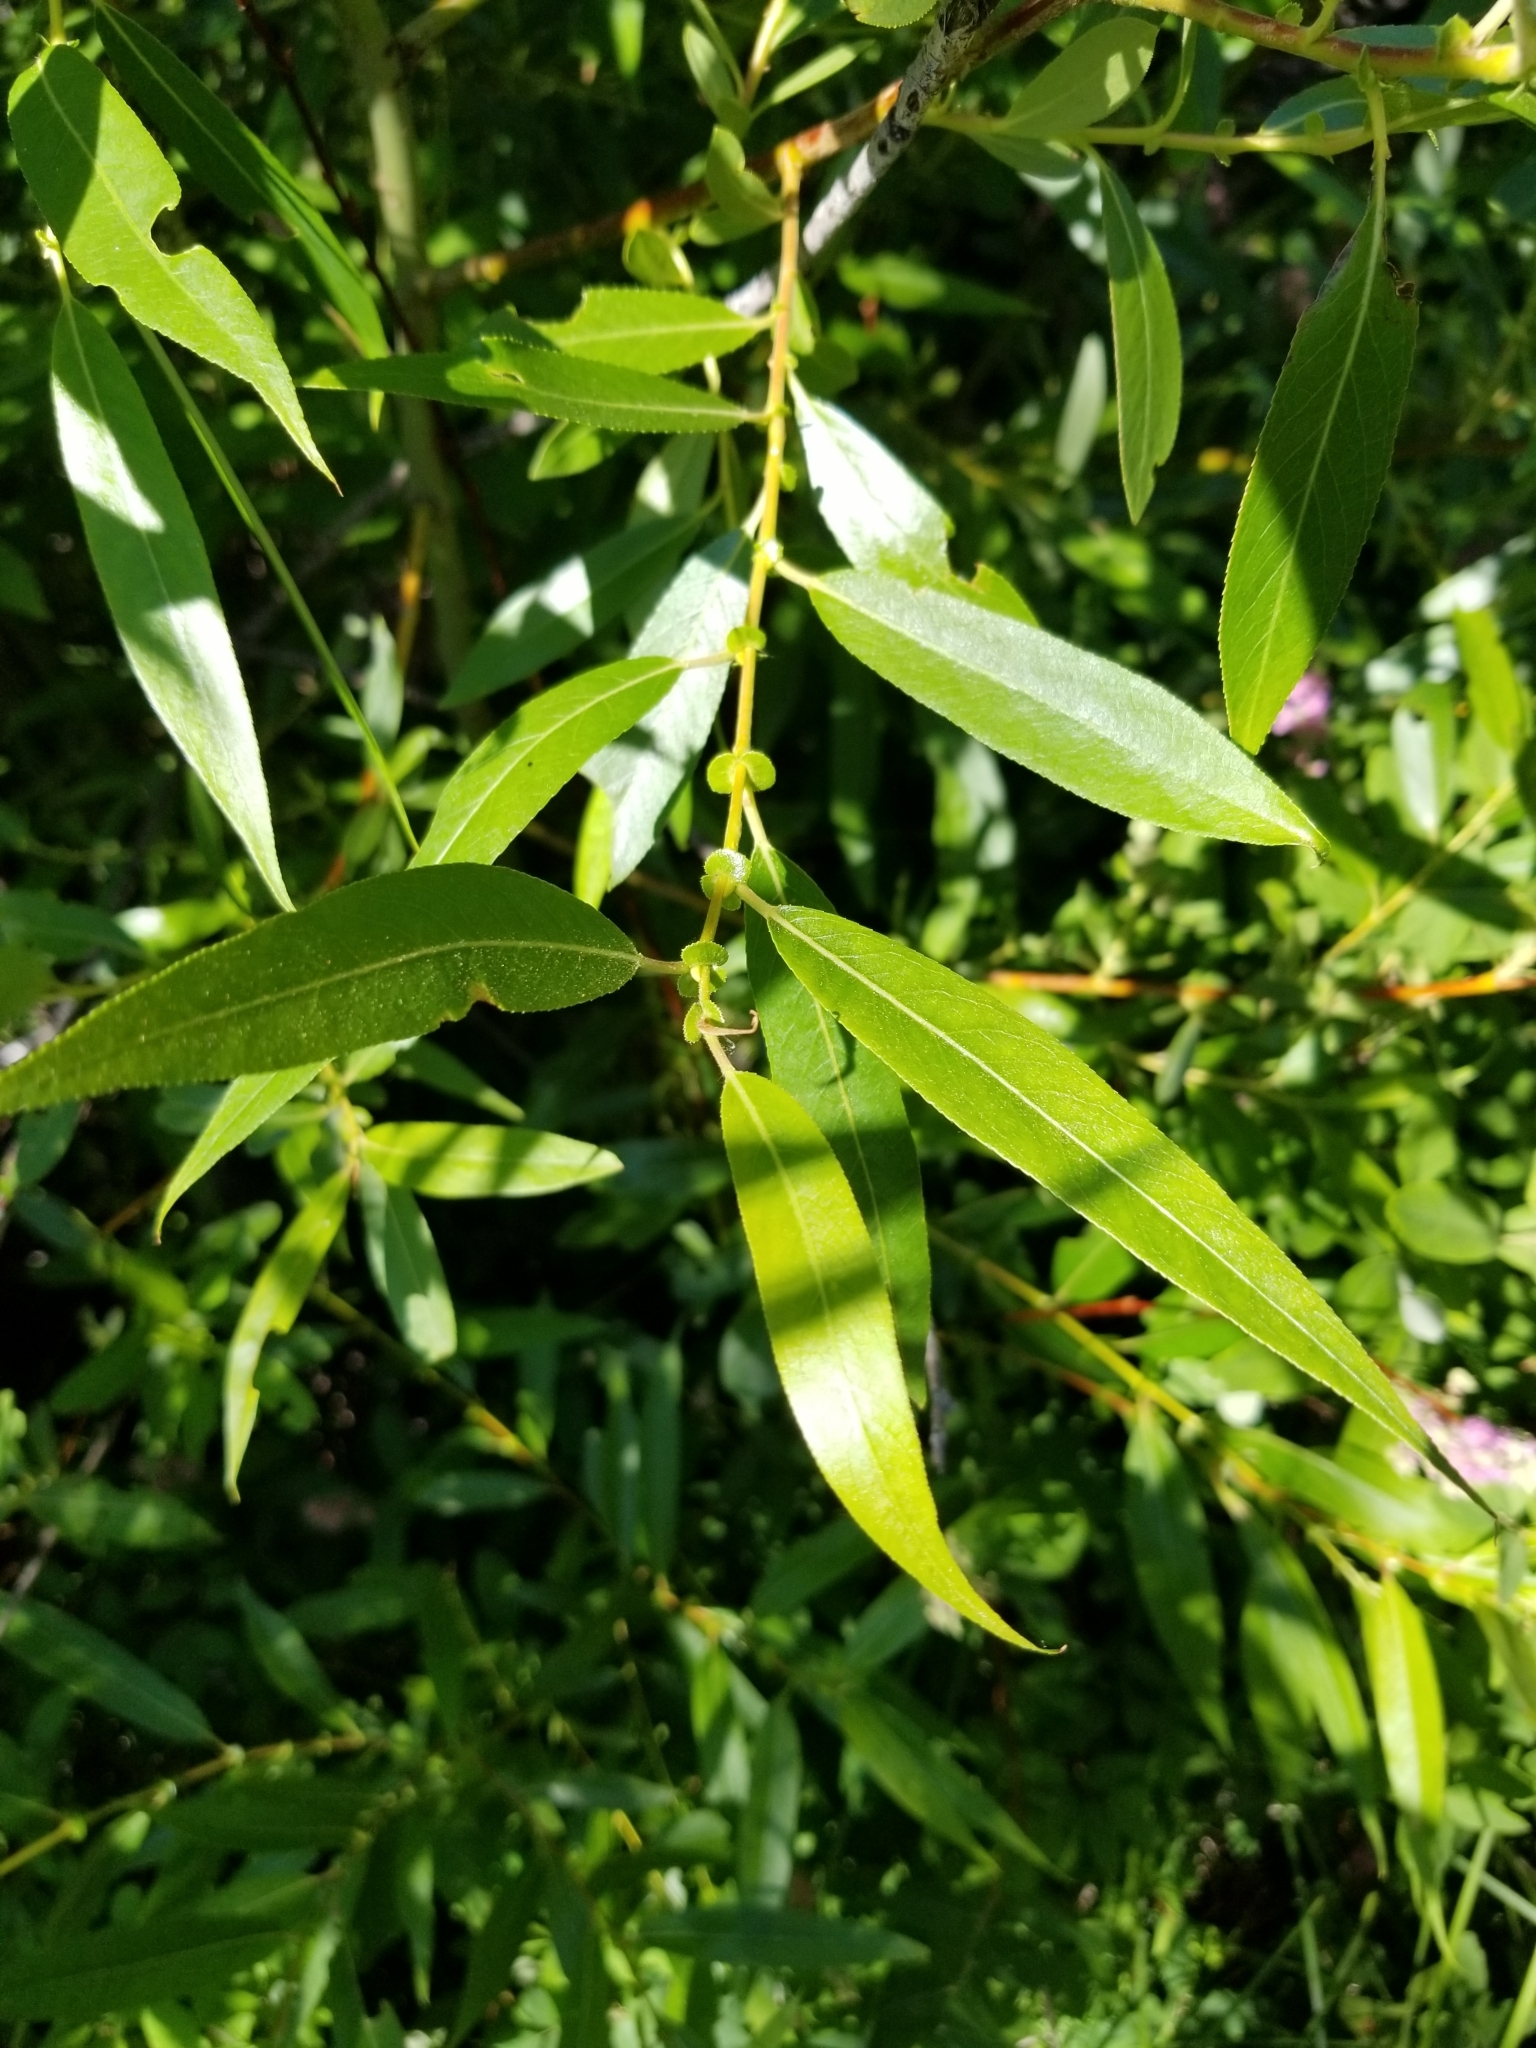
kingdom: Plantae
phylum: Tracheophyta
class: Magnoliopsida
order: Malpighiales
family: Salicaceae
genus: Salix
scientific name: Salix lucida
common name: Shining willow
